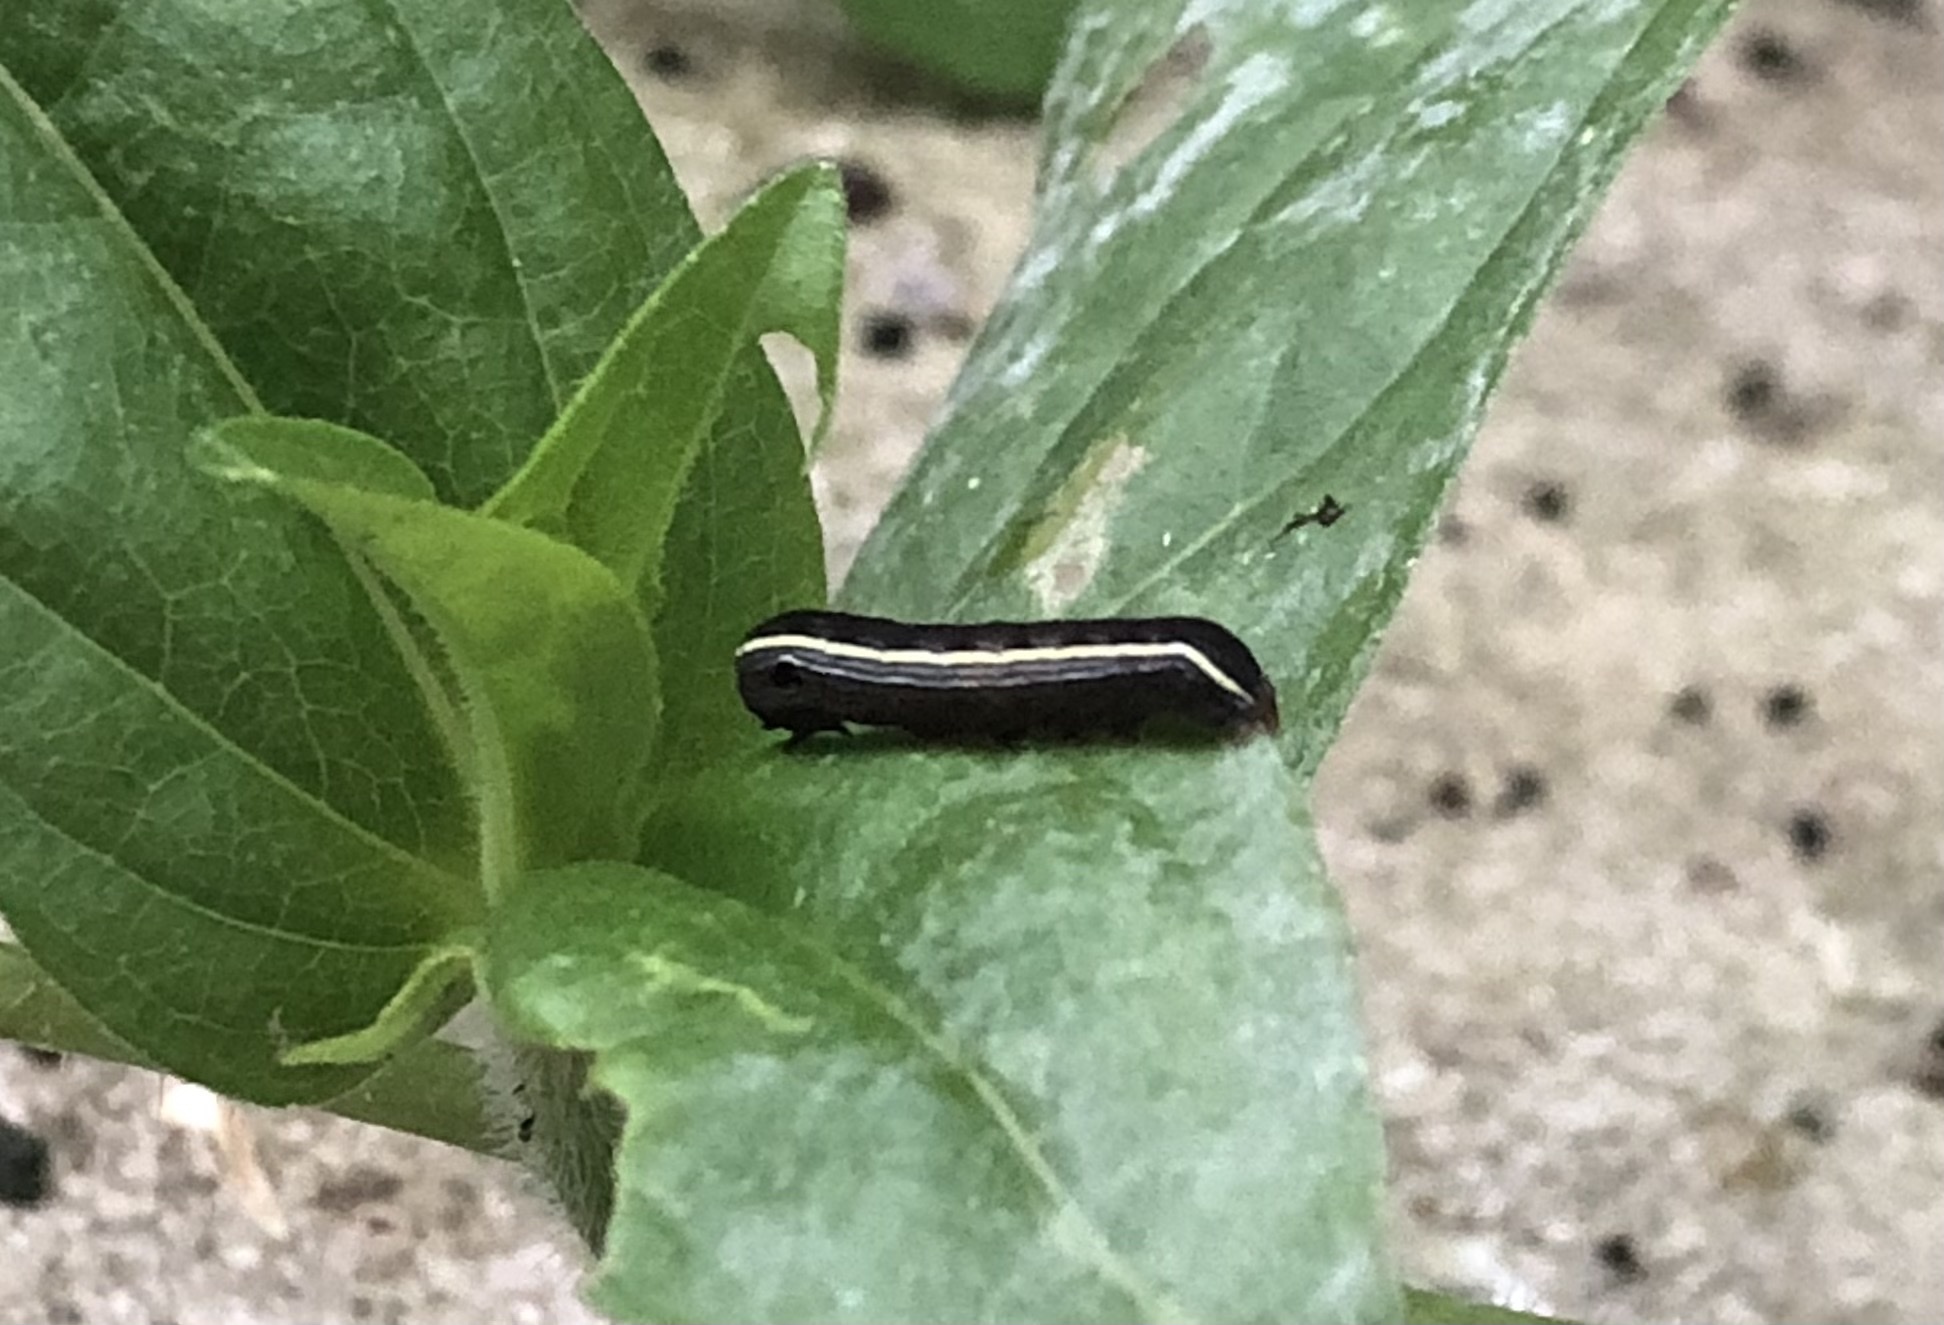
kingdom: Animalia
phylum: Arthropoda
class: Insecta
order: Lepidoptera
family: Noctuidae
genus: Spodoptera
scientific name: Spodoptera ornithogalli
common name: Yellow-striped armyworm
